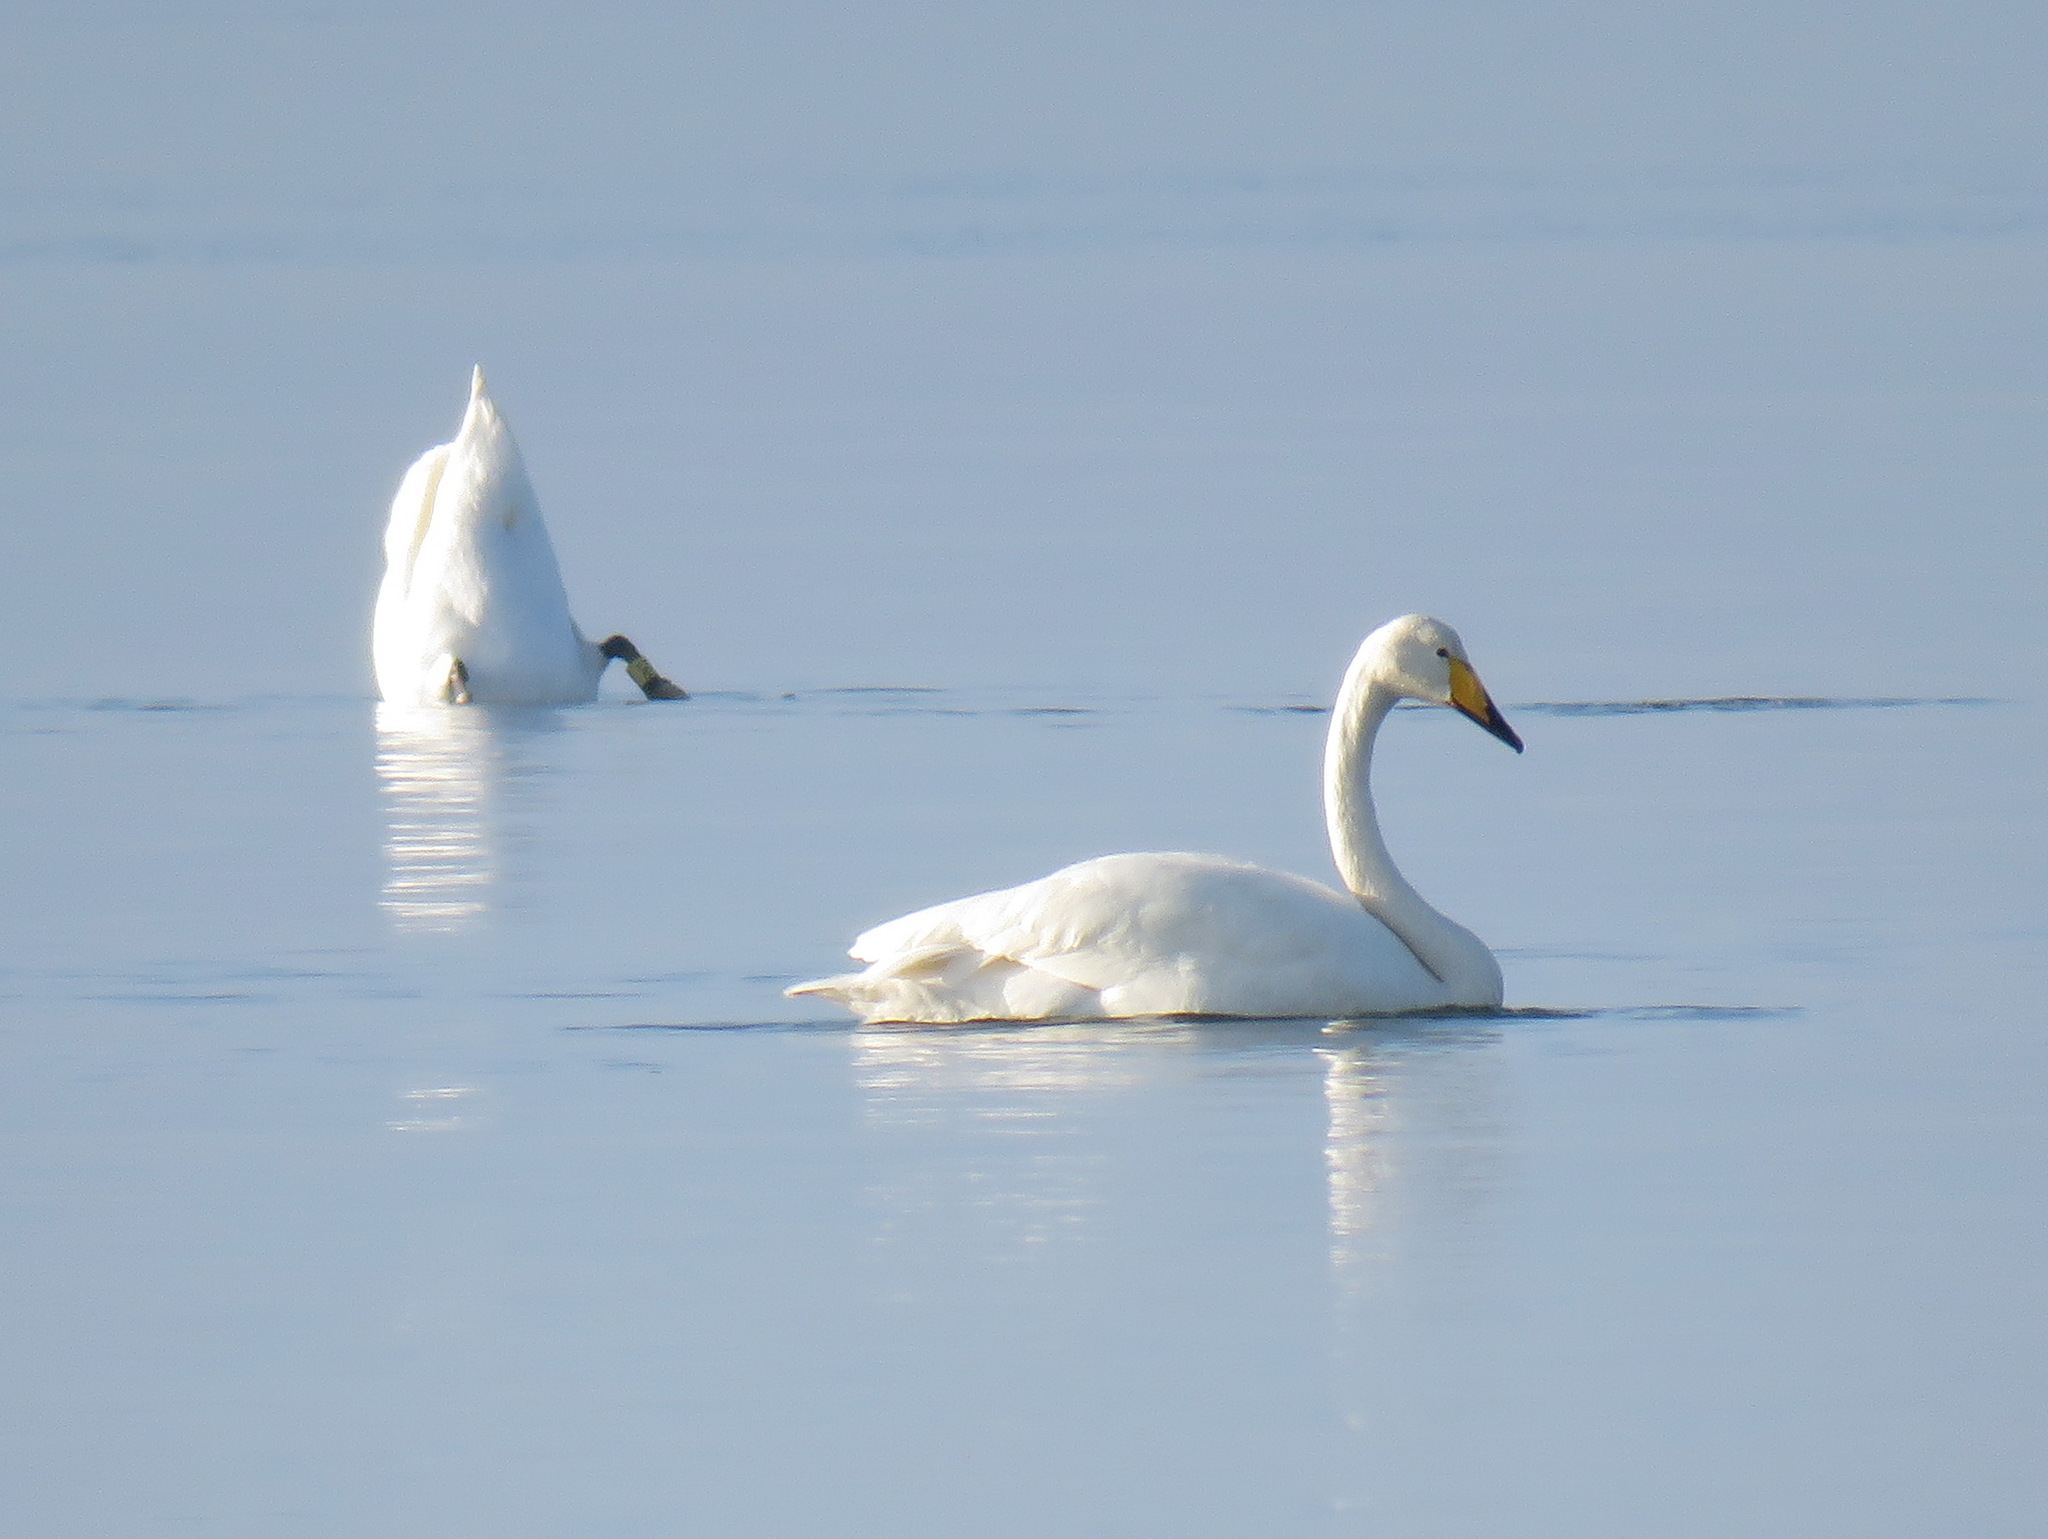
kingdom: Animalia
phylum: Chordata
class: Aves
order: Anseriformes
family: Anatidae
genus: Cygnus
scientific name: Cygnus cygnus
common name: Whooper swan
